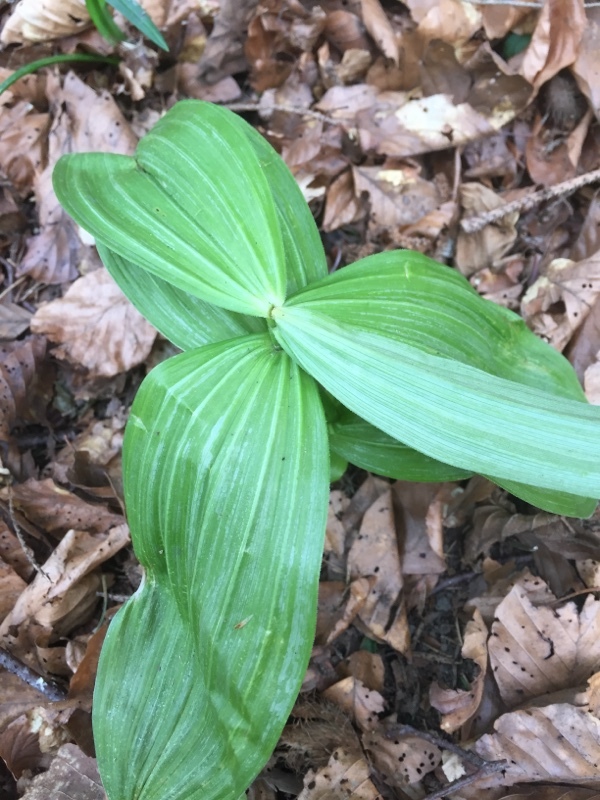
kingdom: Plantae
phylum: Tracheophyta
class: Liliopsida
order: Liliales
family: Melanthiaceae
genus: Veratrum
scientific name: Veratrum nigrum
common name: Black veratrum
